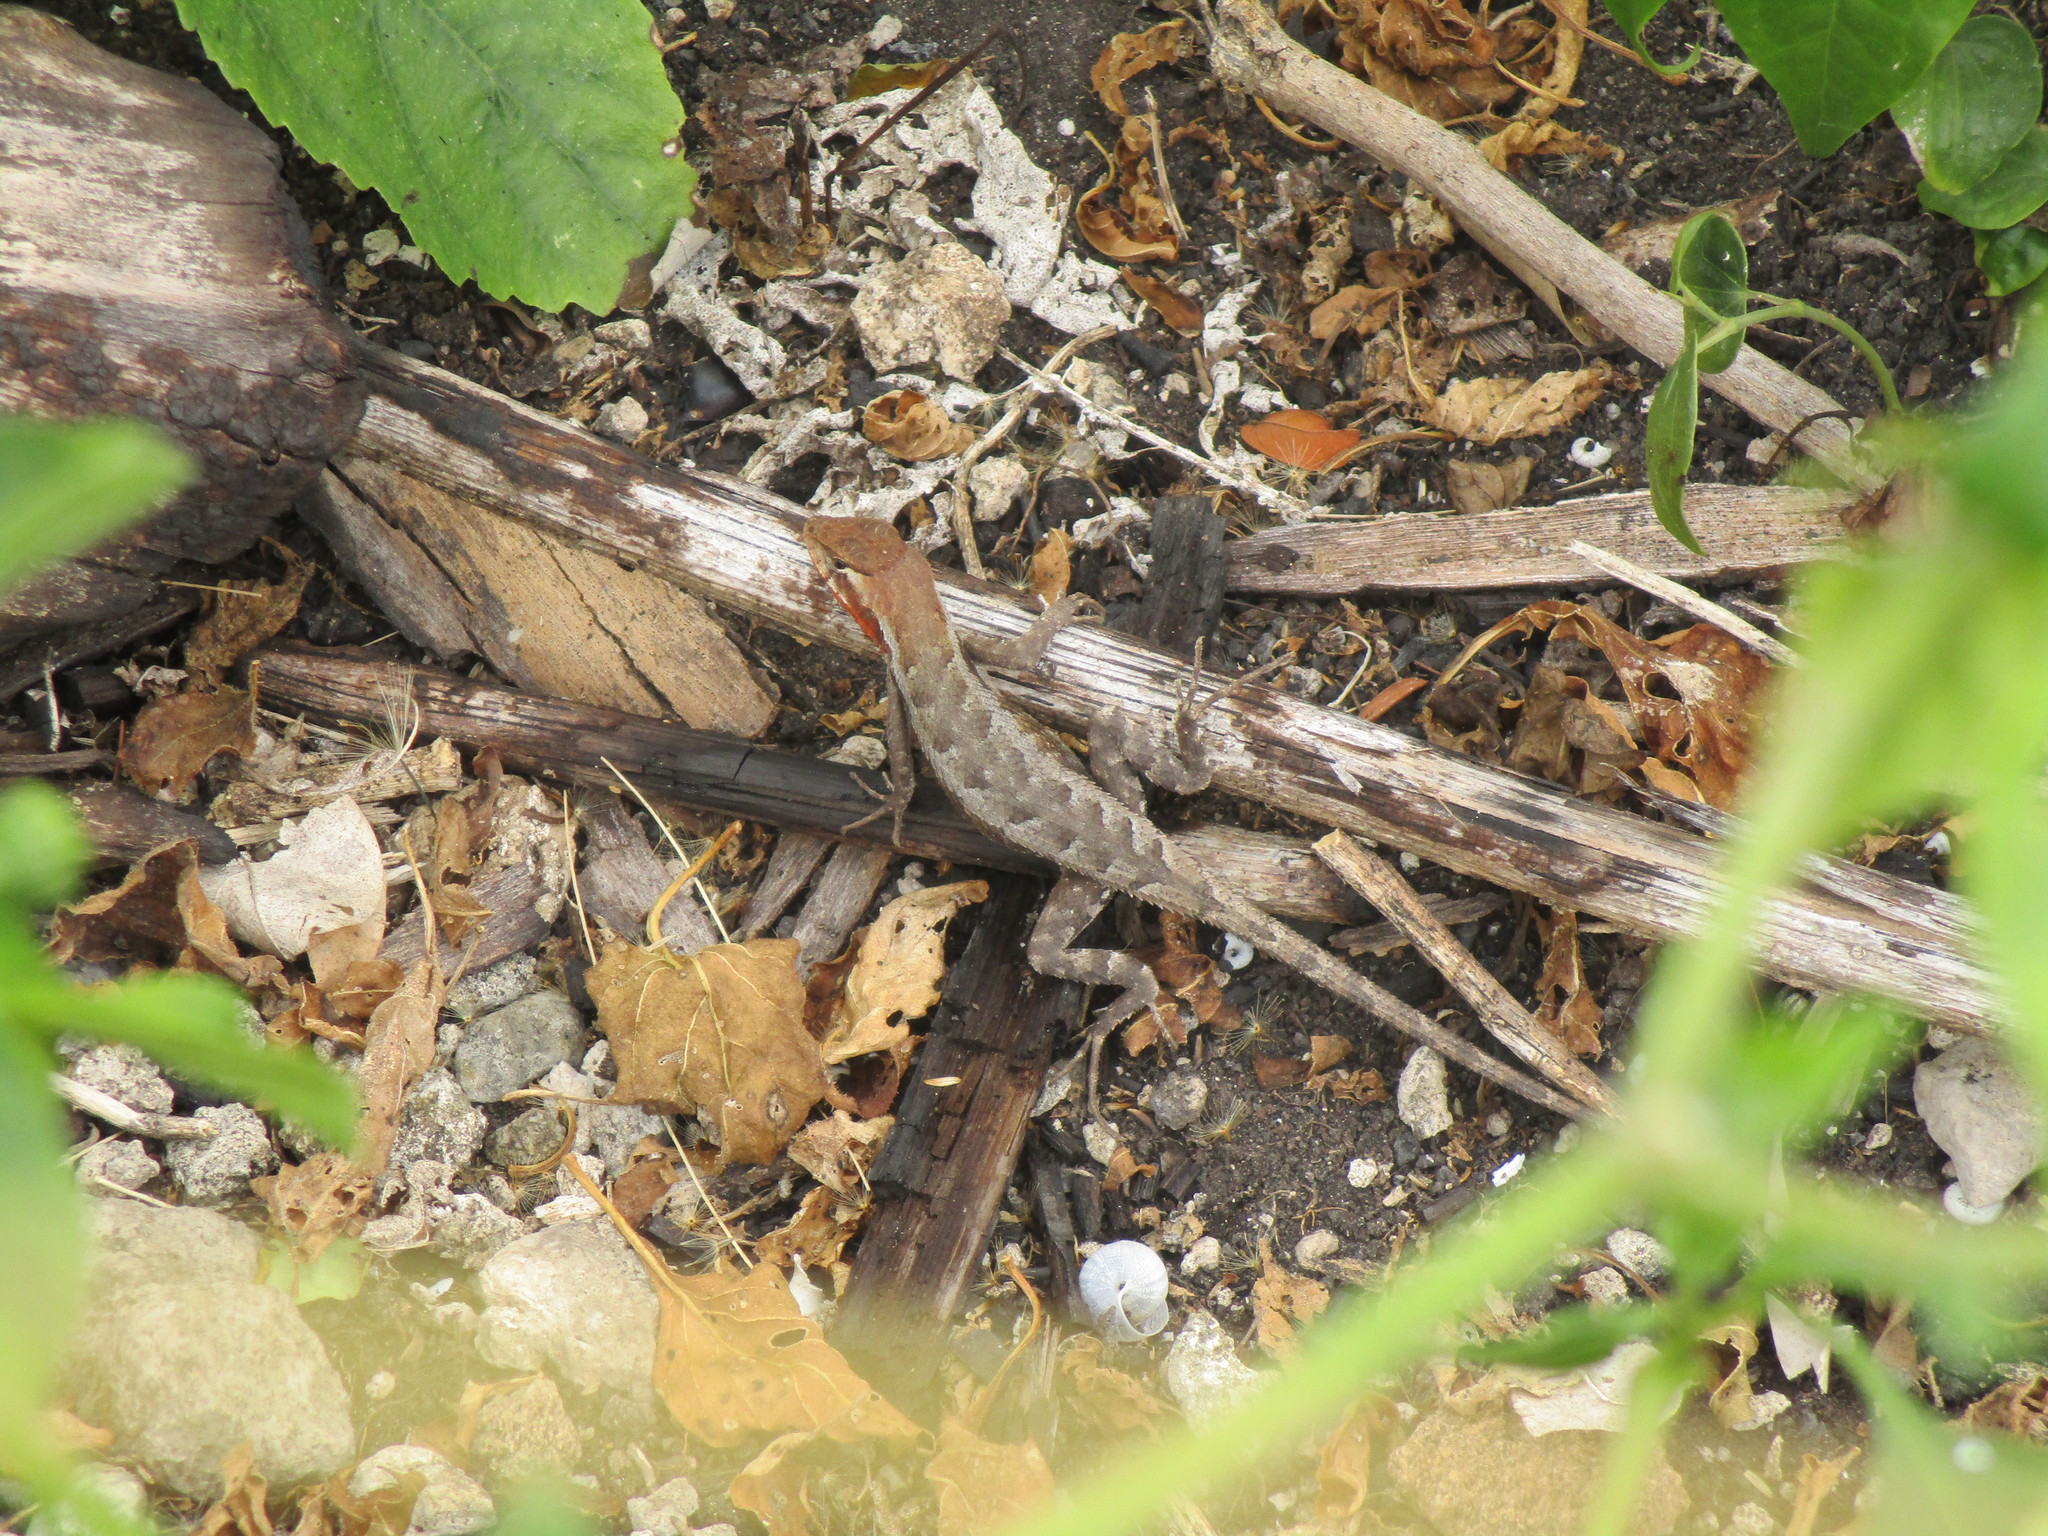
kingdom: Animalia
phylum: Chordata
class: Squamata
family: Phrynosomatidae
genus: Sceloporus
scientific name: Sceloporus chrysostictus
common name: Yellow-spotted spiny lizard
